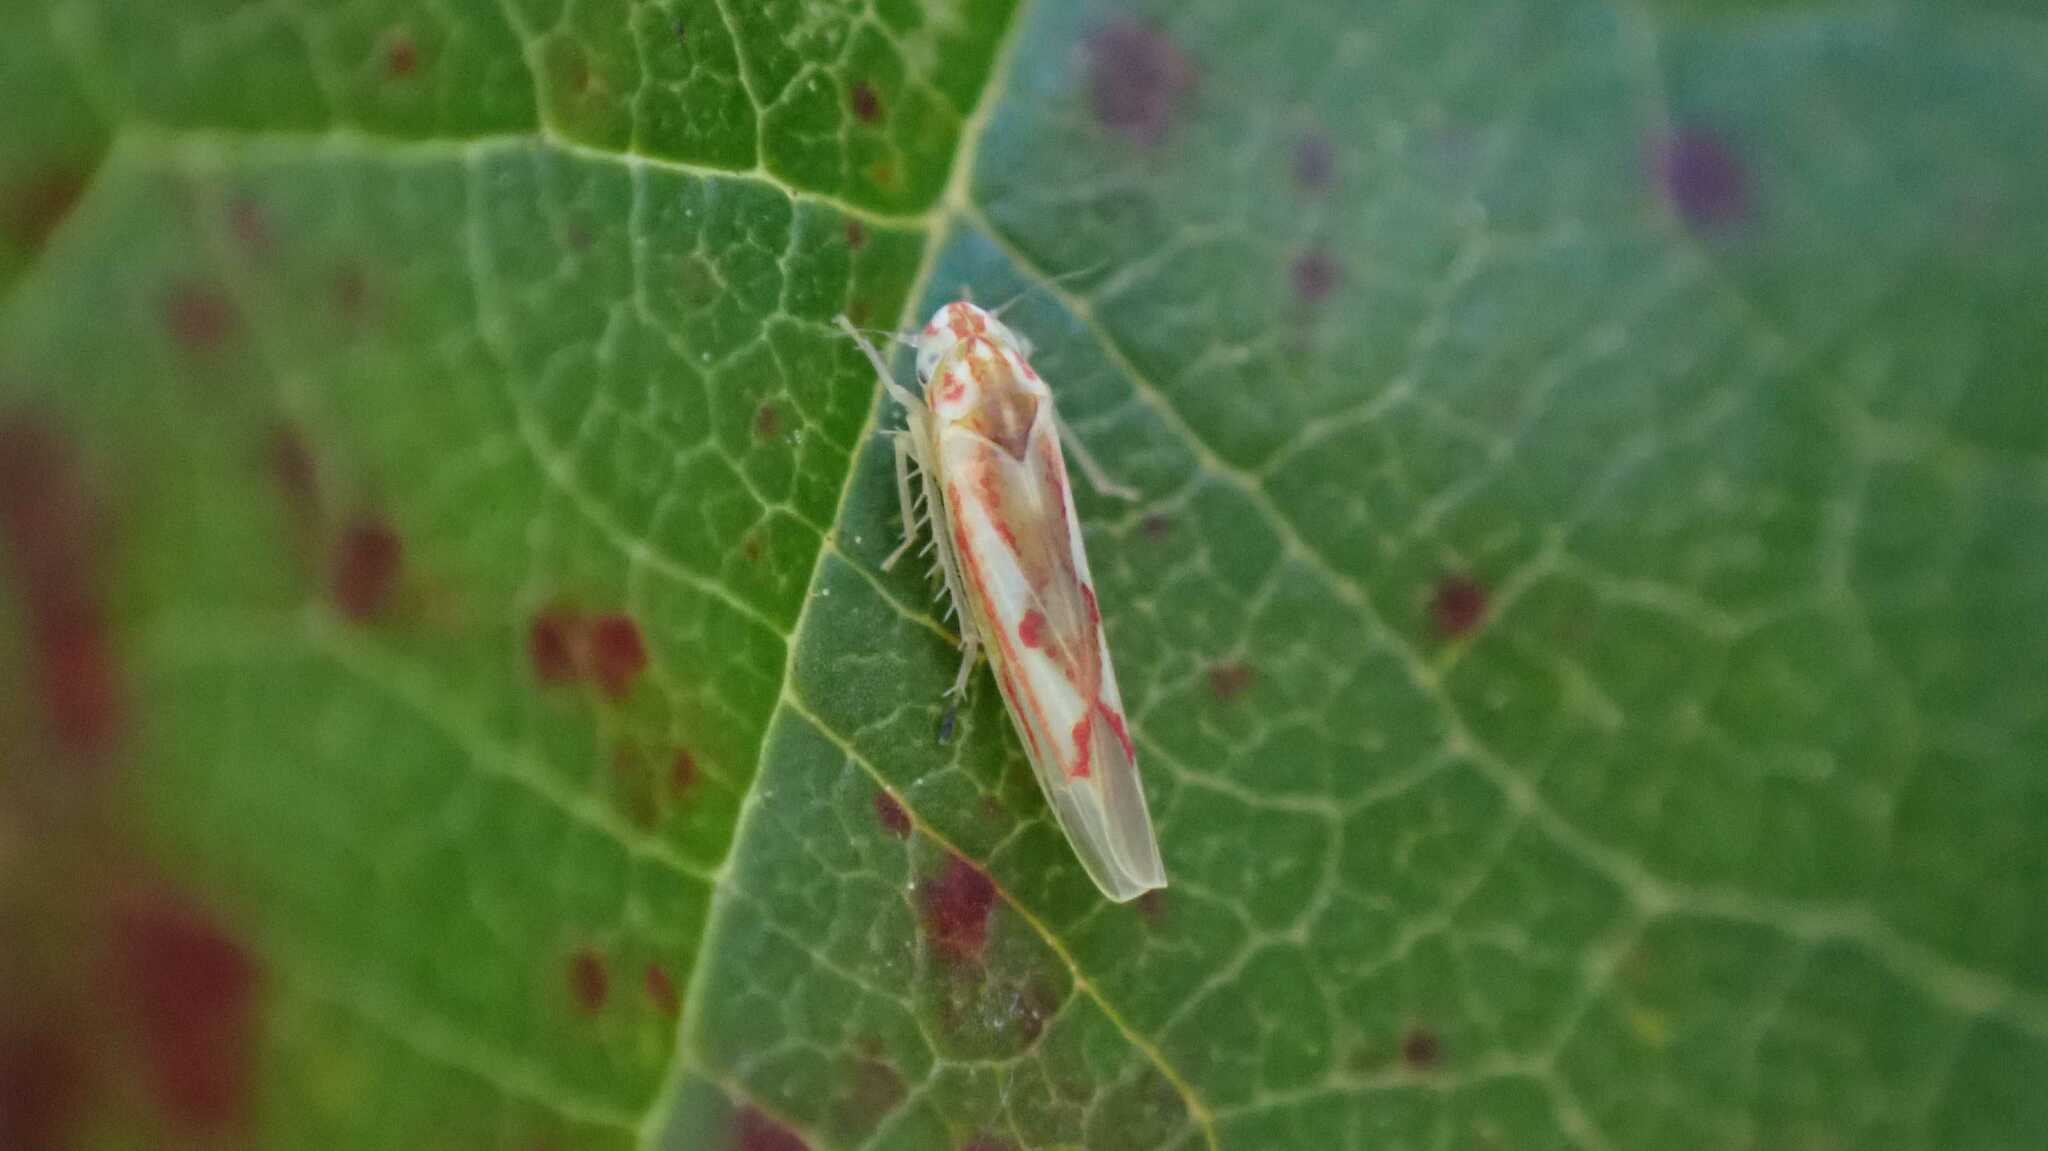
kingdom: Animalia
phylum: Arthropoda
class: Insecta
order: Hemiptera
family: Cicadellidae
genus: Zygina
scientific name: Zygina angusta
